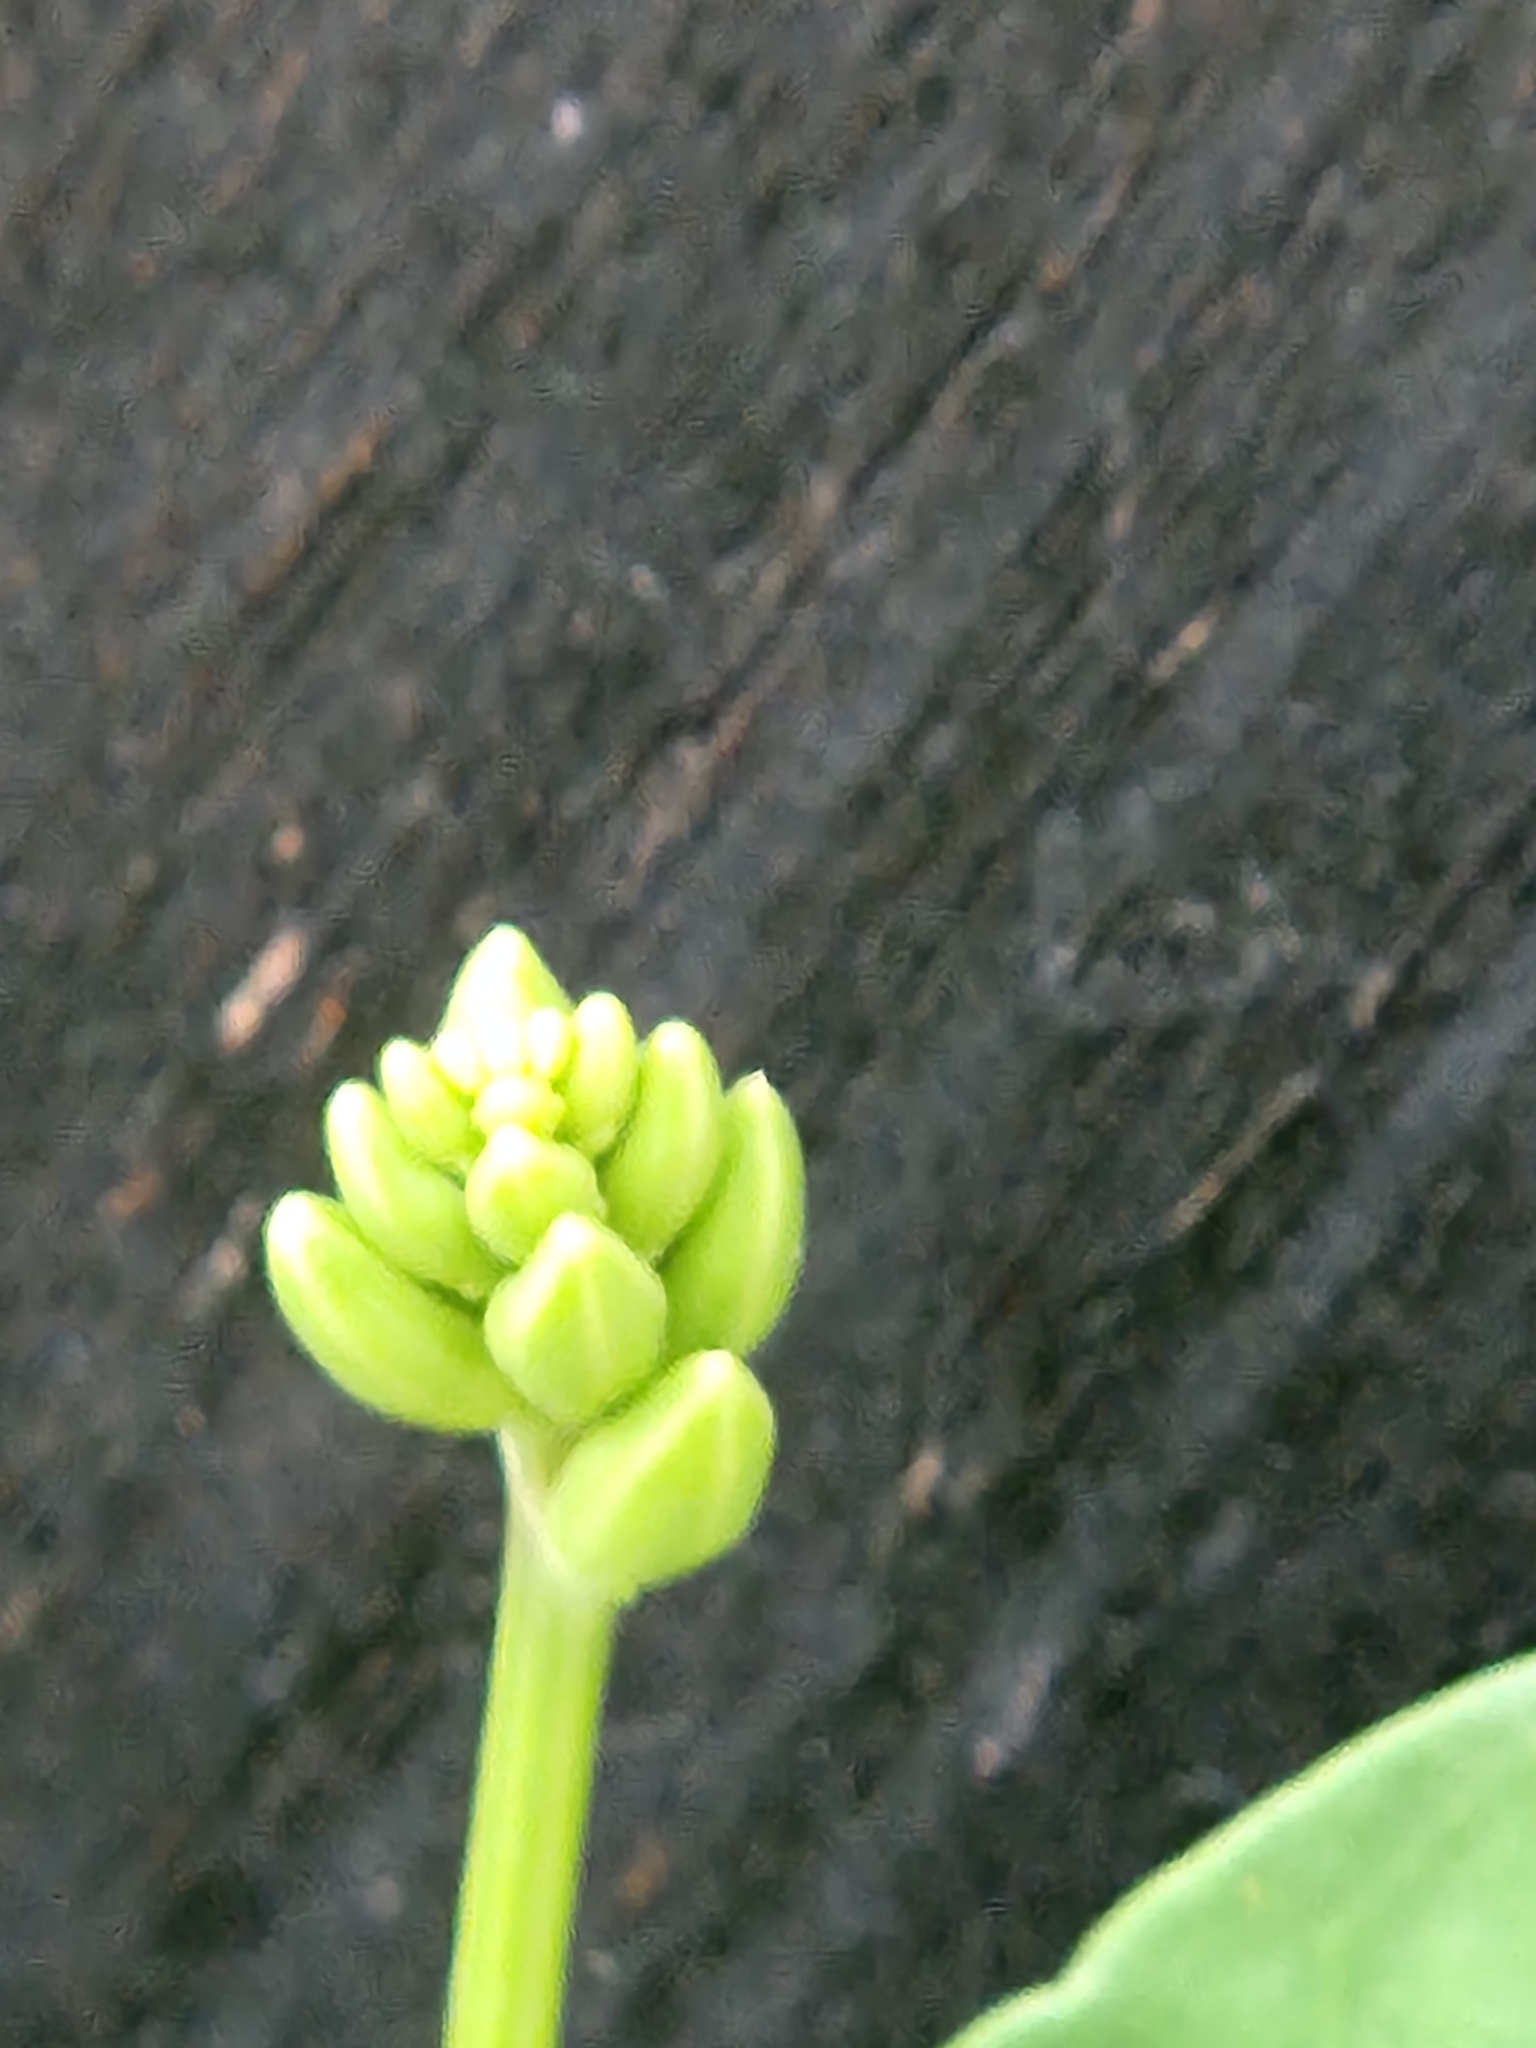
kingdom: Plantae
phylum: Tracheophyta
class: Magnoliopsida
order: Lamiales
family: Acanthaceae
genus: Dianthera
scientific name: Dianthera americana
